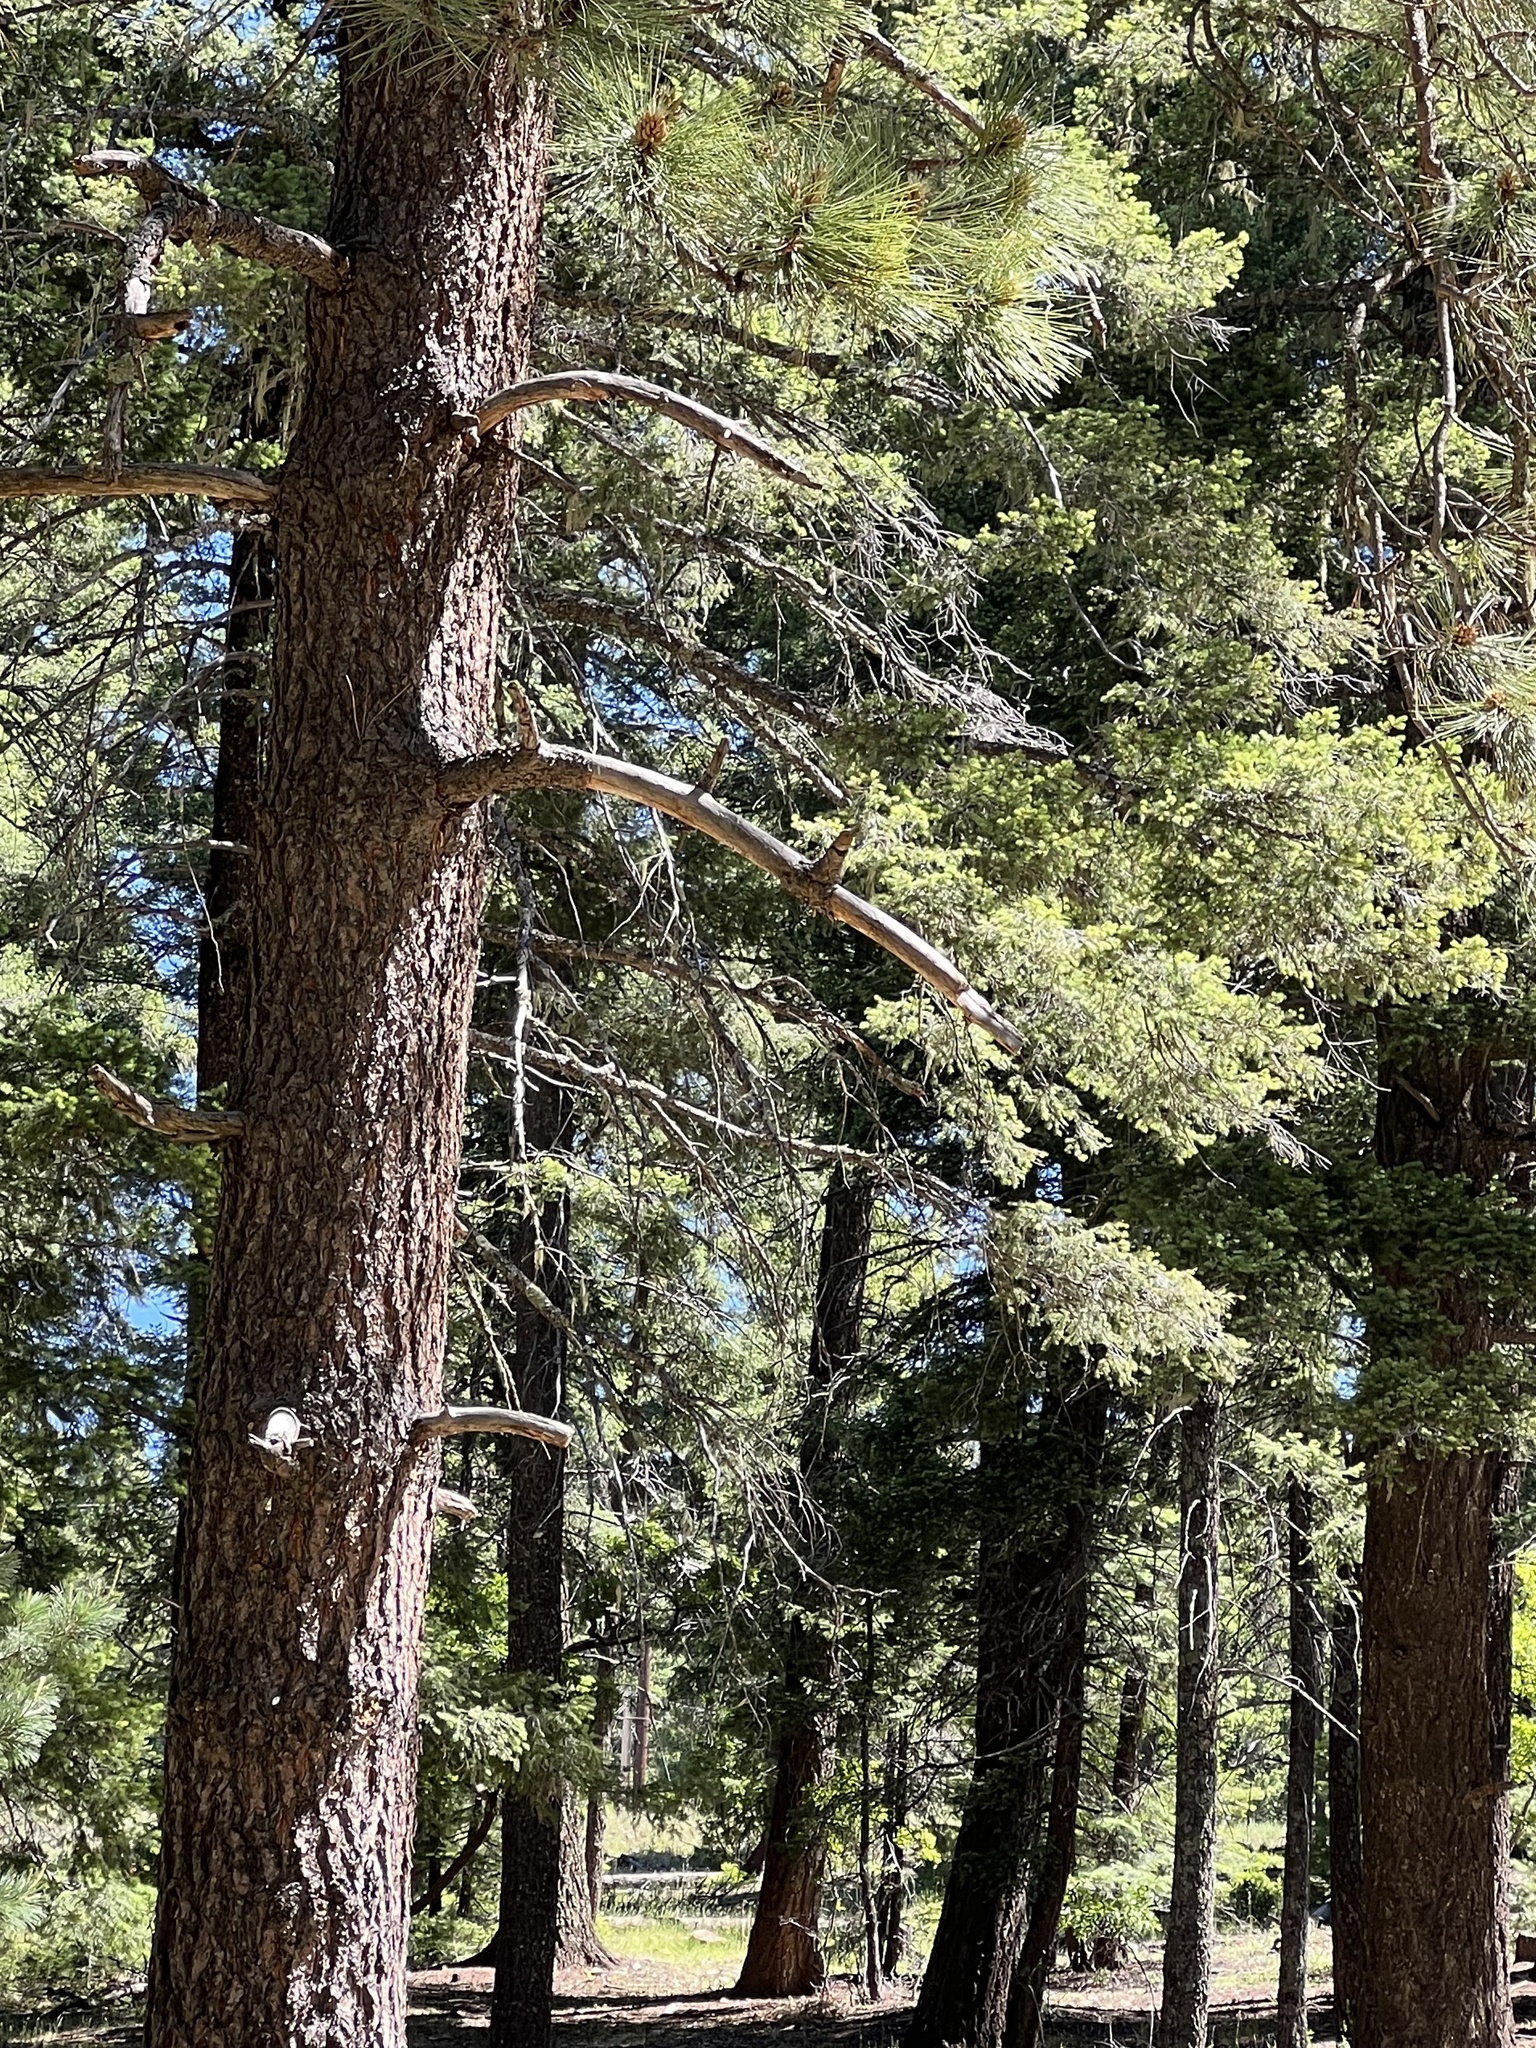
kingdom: Plantae
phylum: Tracheophyta
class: Pinopsida
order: Pinales
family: Pinaceae
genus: Pinus
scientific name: Pinus ponderosa
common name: Western yellow-pine
